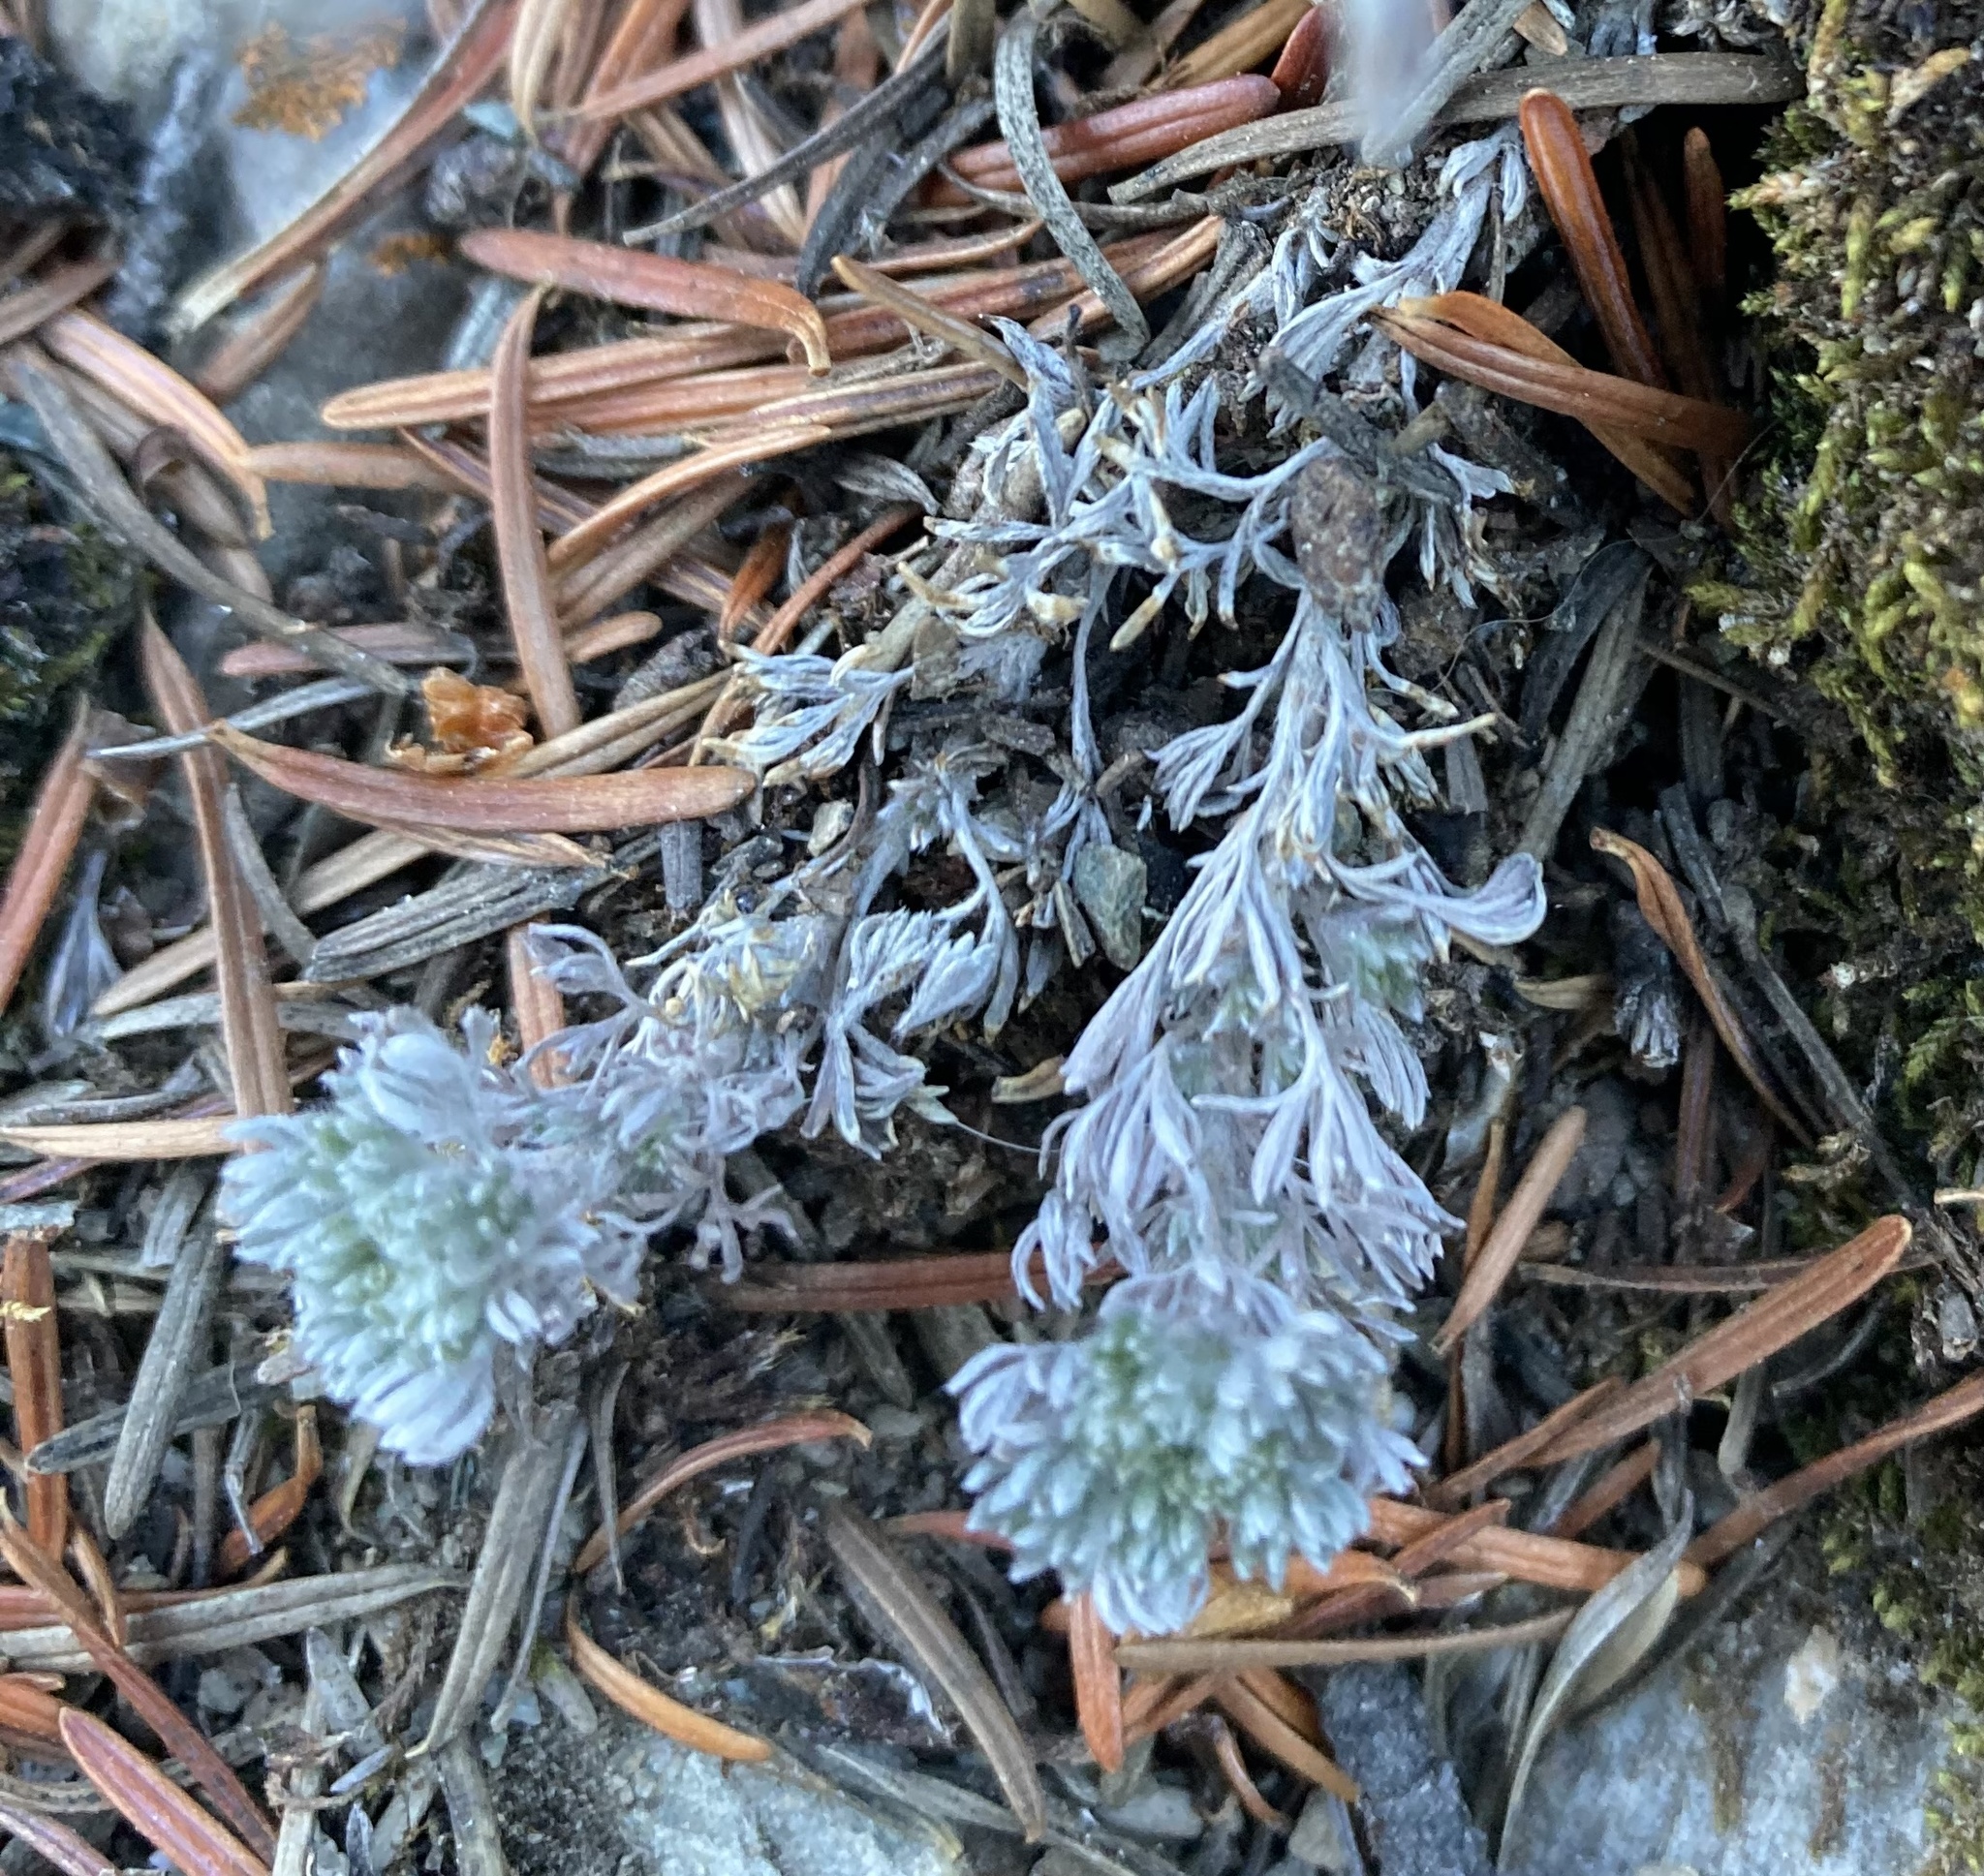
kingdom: Plantae
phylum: Tracheophyta
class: Magnoliopsida
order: Asterales
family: Asteraceae
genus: Artemisia
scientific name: Artemisia frigida
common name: Prairie sagewort
